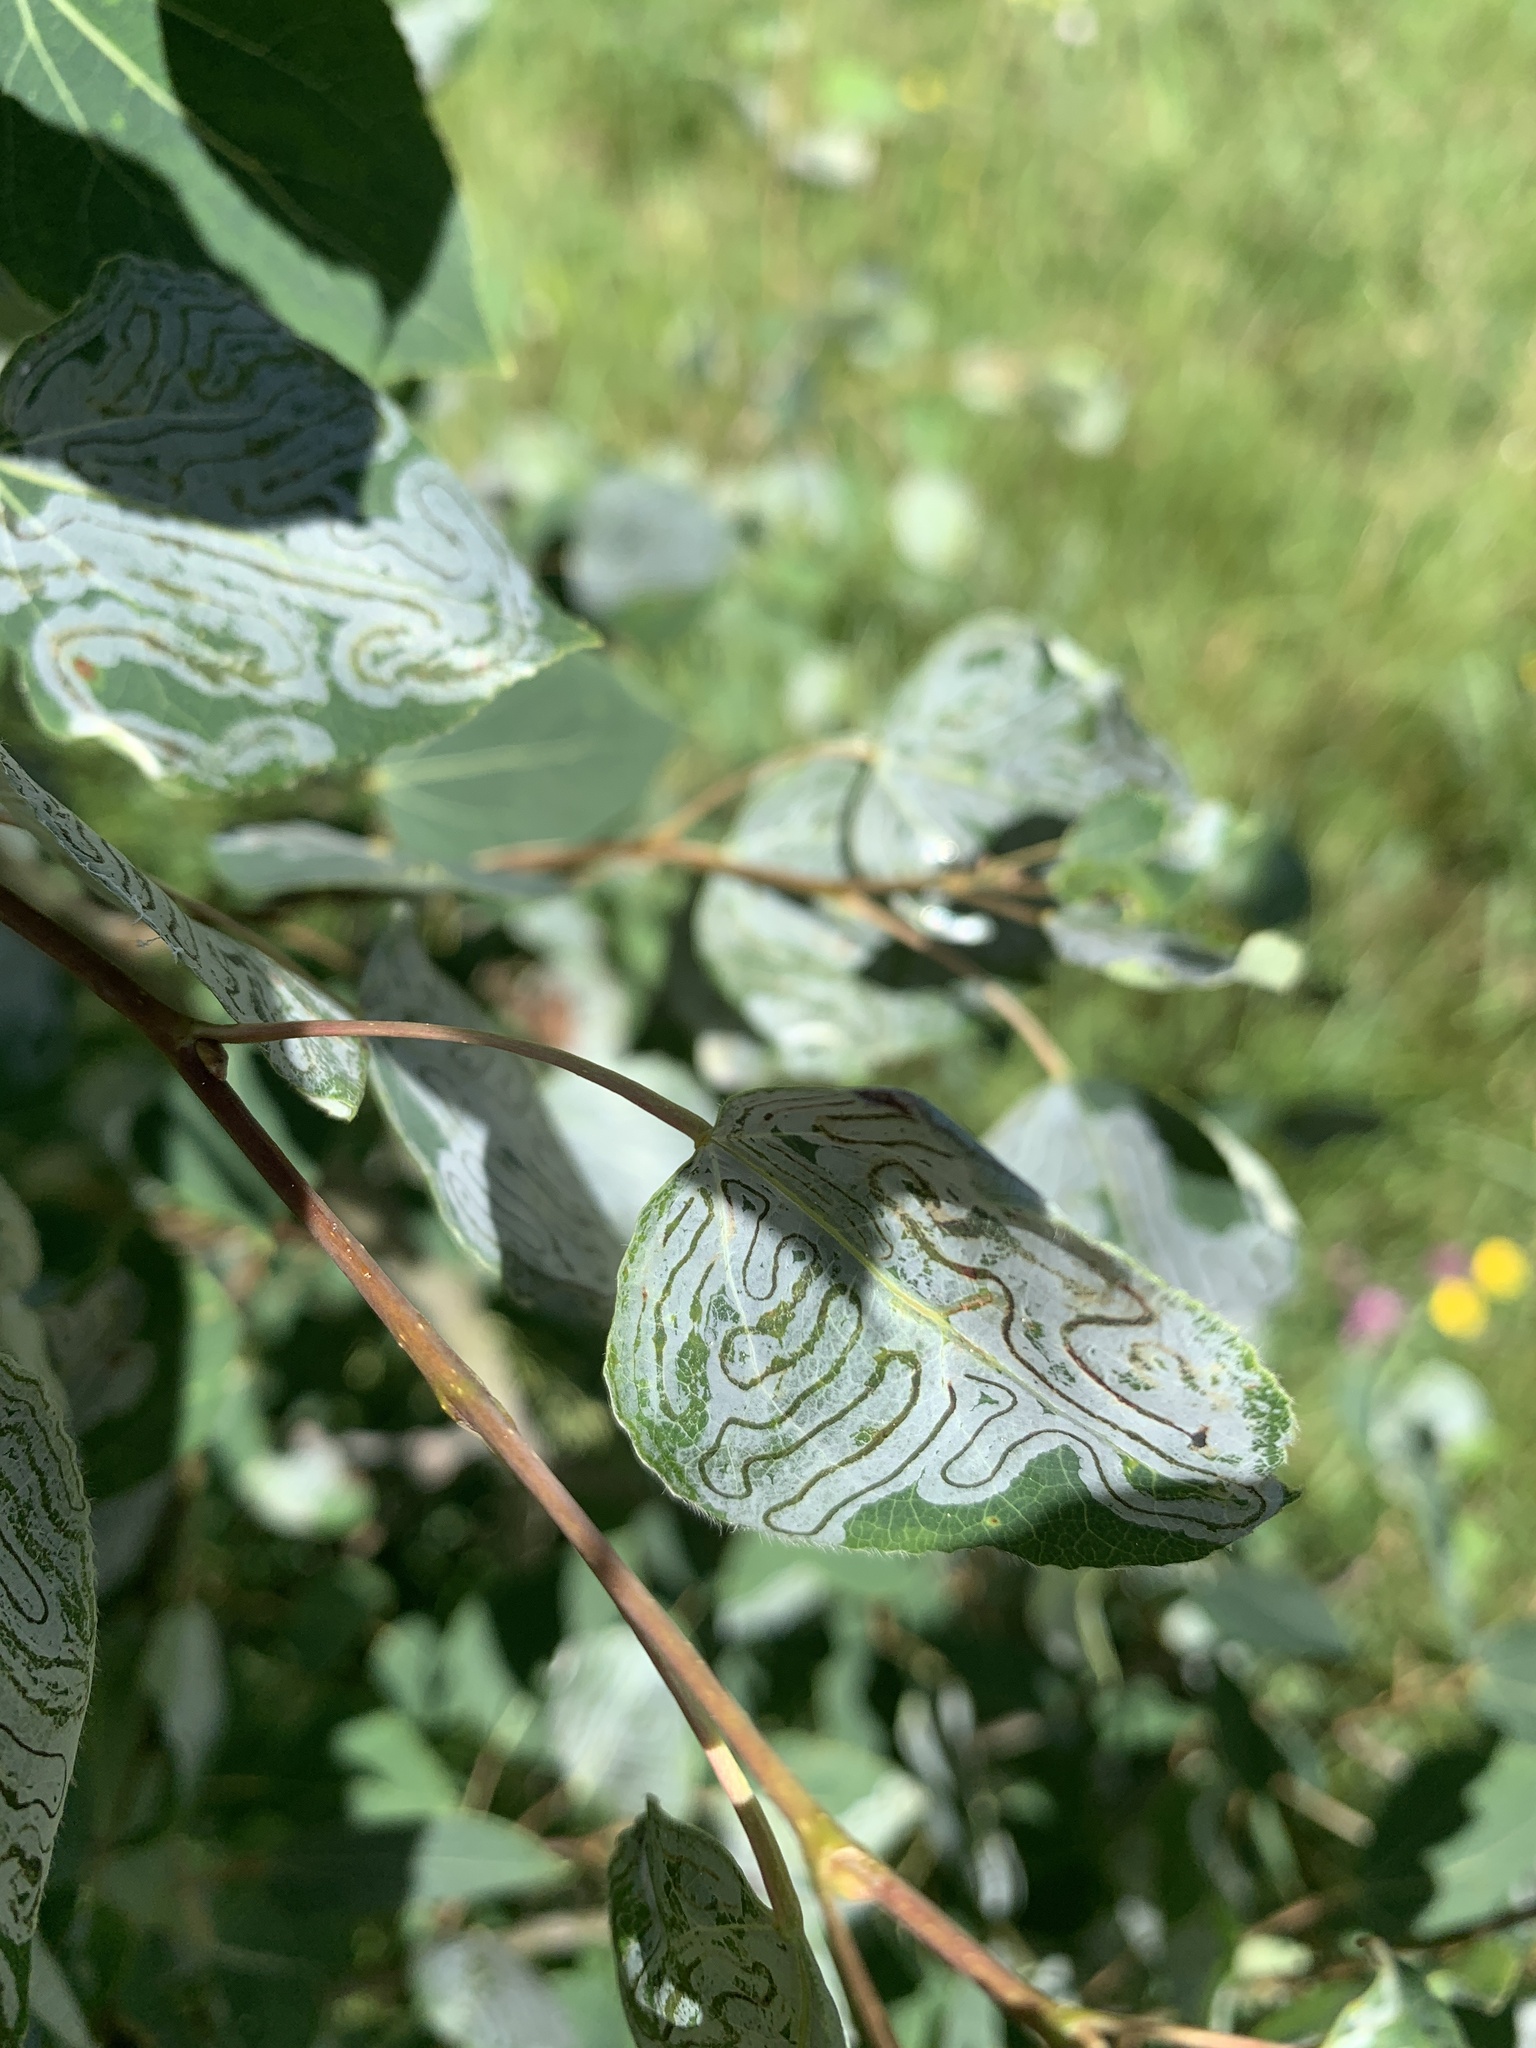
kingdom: Animalia
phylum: Arthropoda
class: Insecta
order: Lepidoptera
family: Gracillariidae
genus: Phyllocnistis
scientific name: Phyllocnistis populiella
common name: Aspen serpentine leafminer moth
